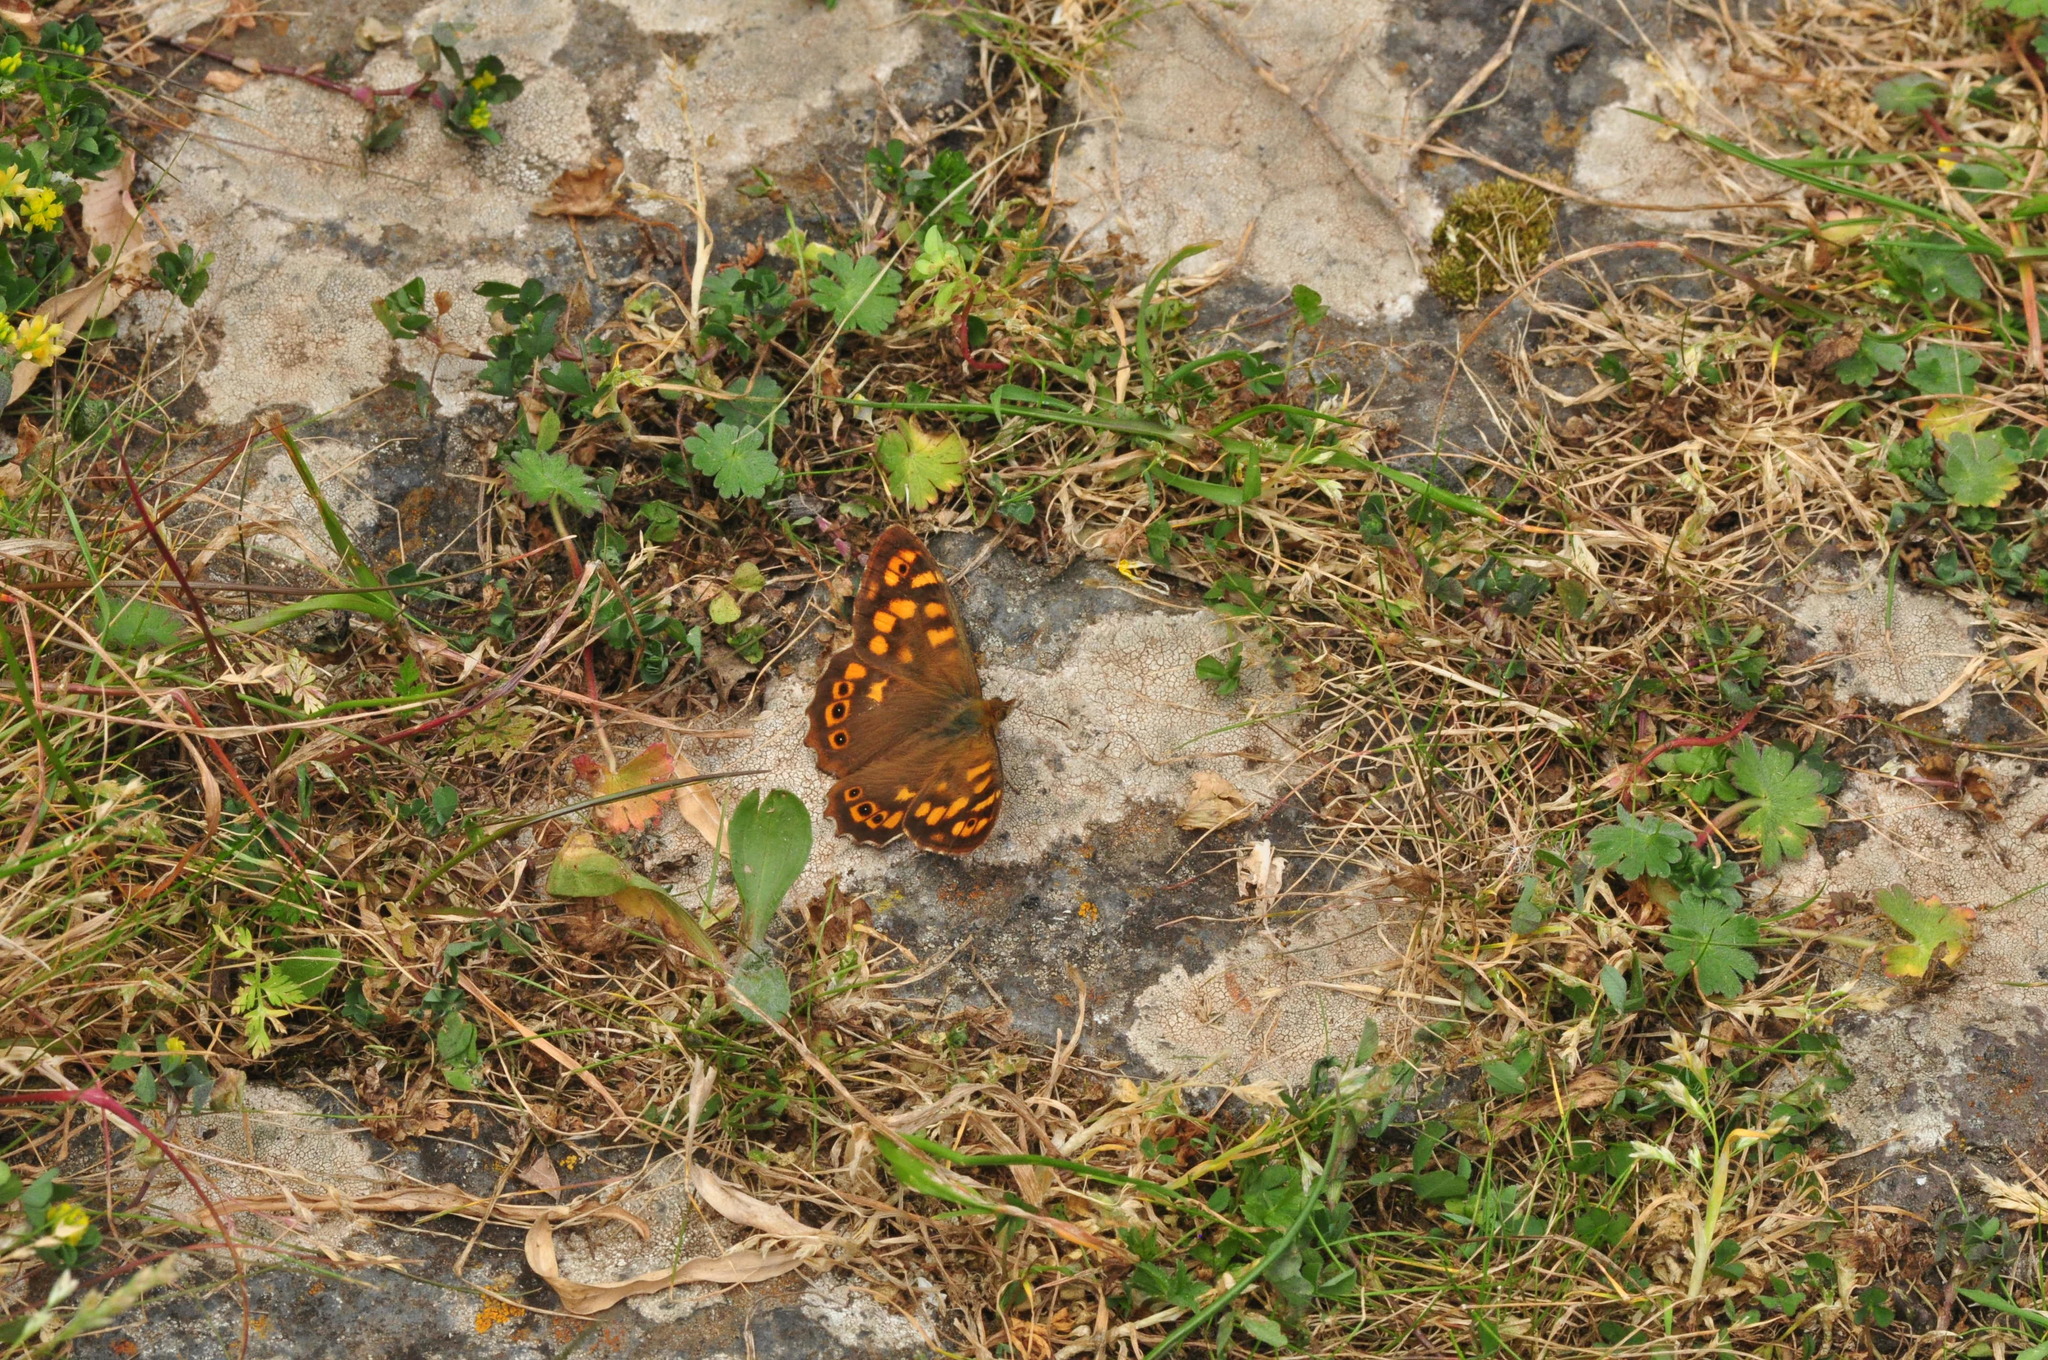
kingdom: Animalia
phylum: Arthropoda
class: Insecta
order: Lepidoptera
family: Nymphalidae
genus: Pararge
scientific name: Pararge aegeria
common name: Speckled wood
